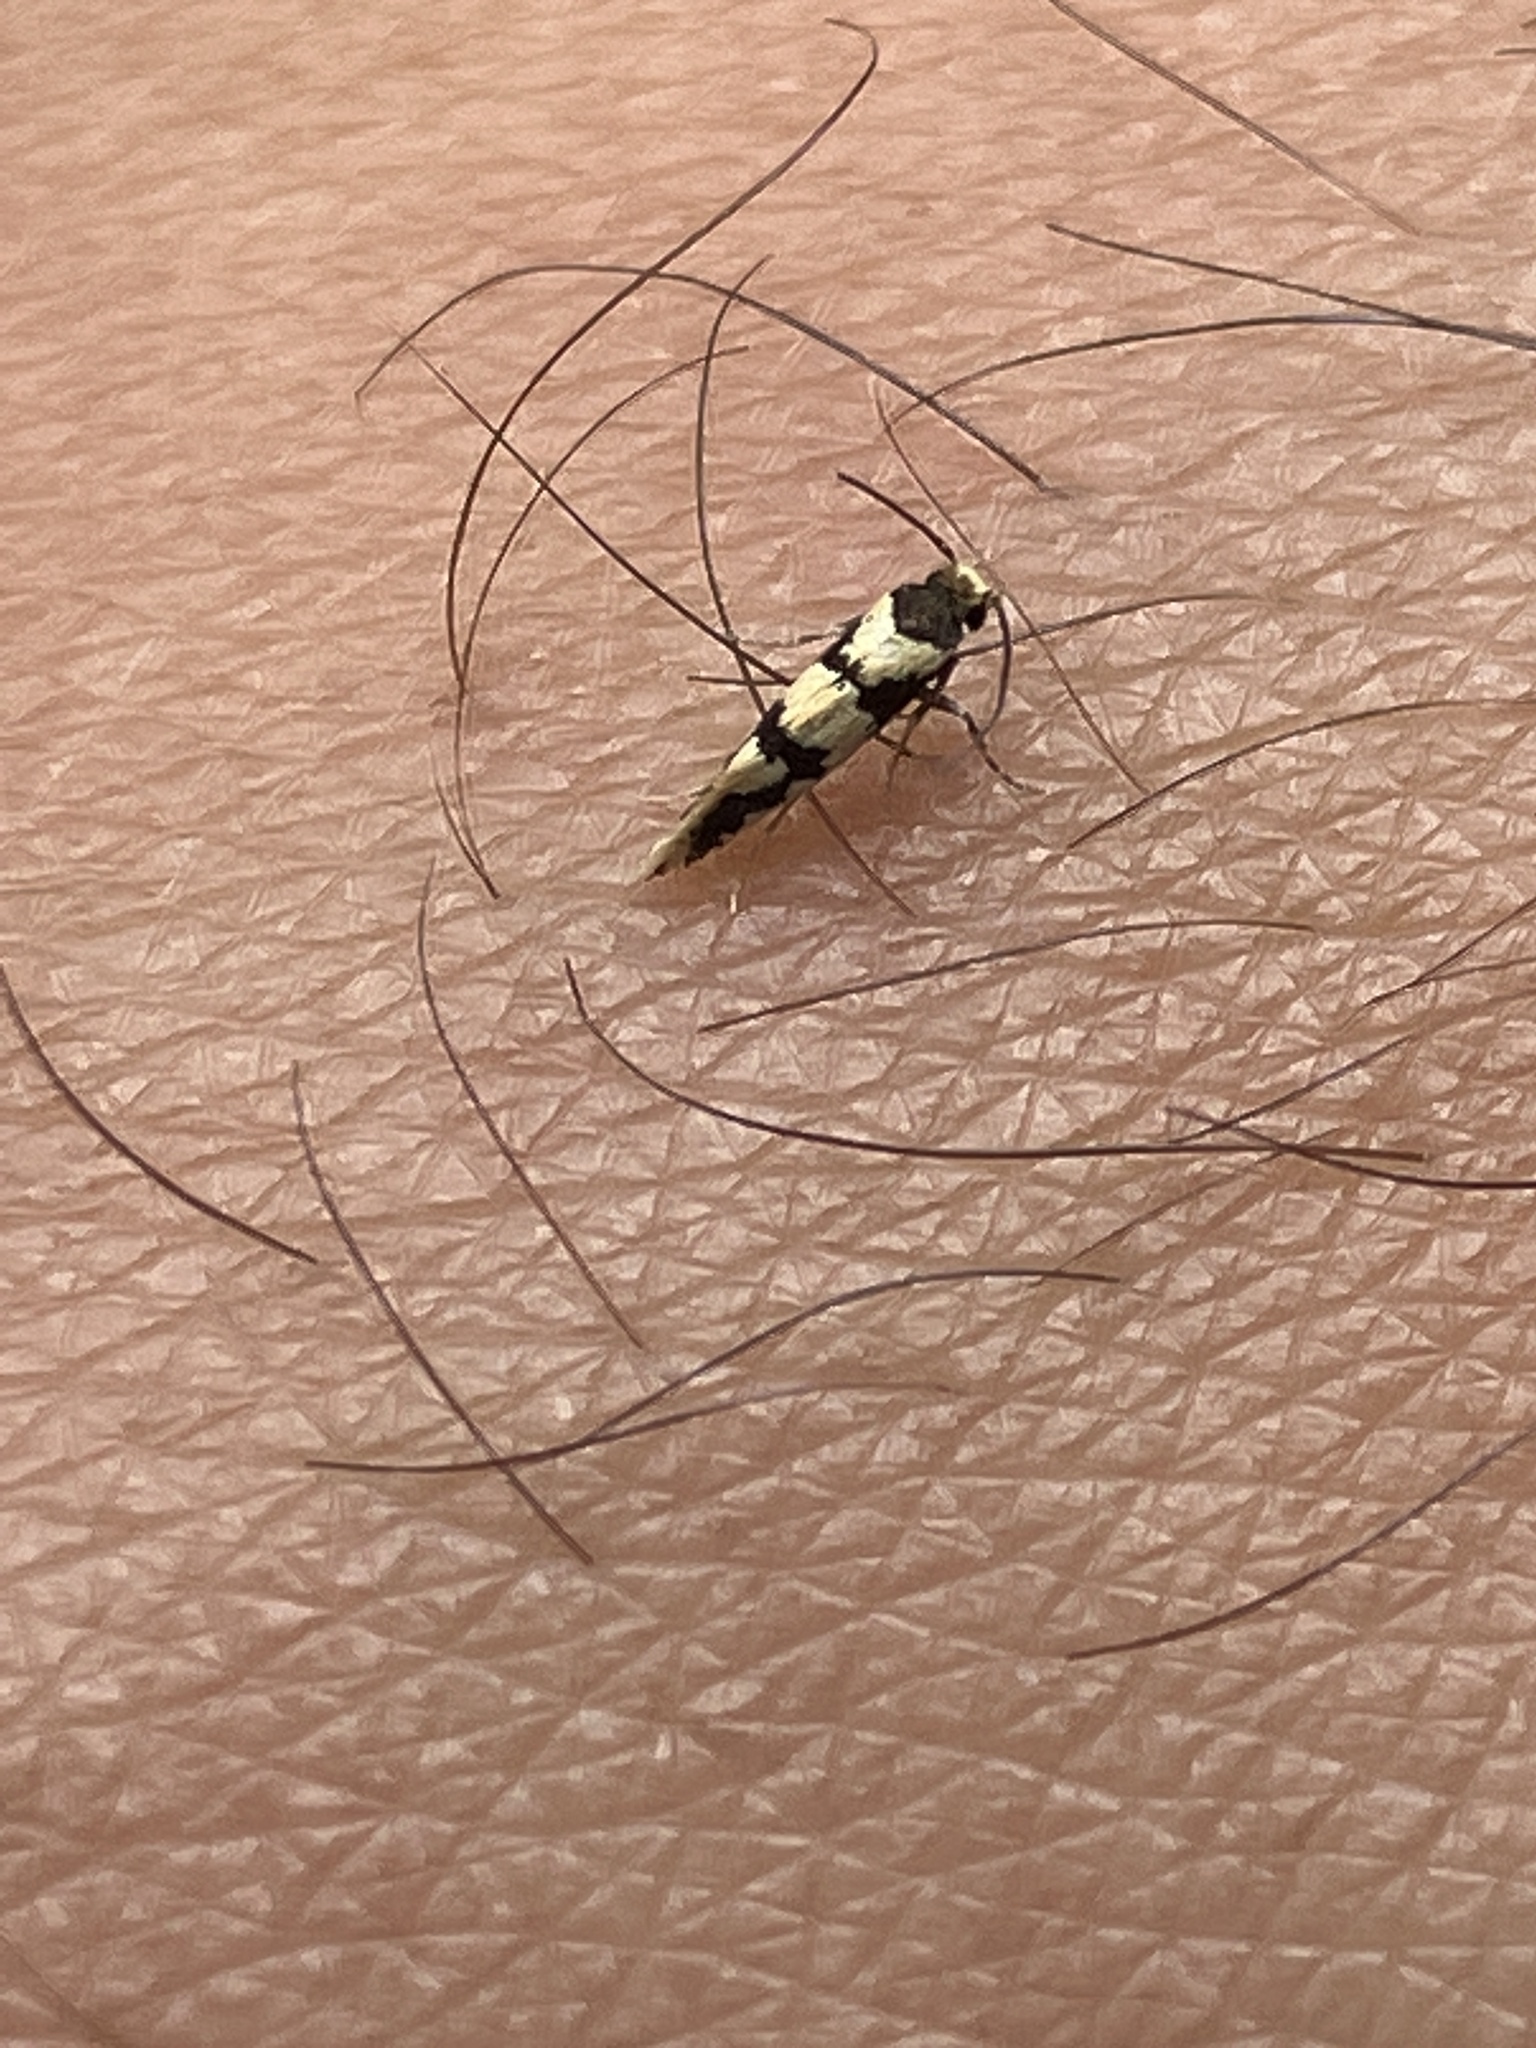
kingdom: Animalia
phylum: Arthropoda
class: Insecta
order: Lepidoptera
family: Tineidae
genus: Opogona
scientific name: Opogona flavofimbriata
